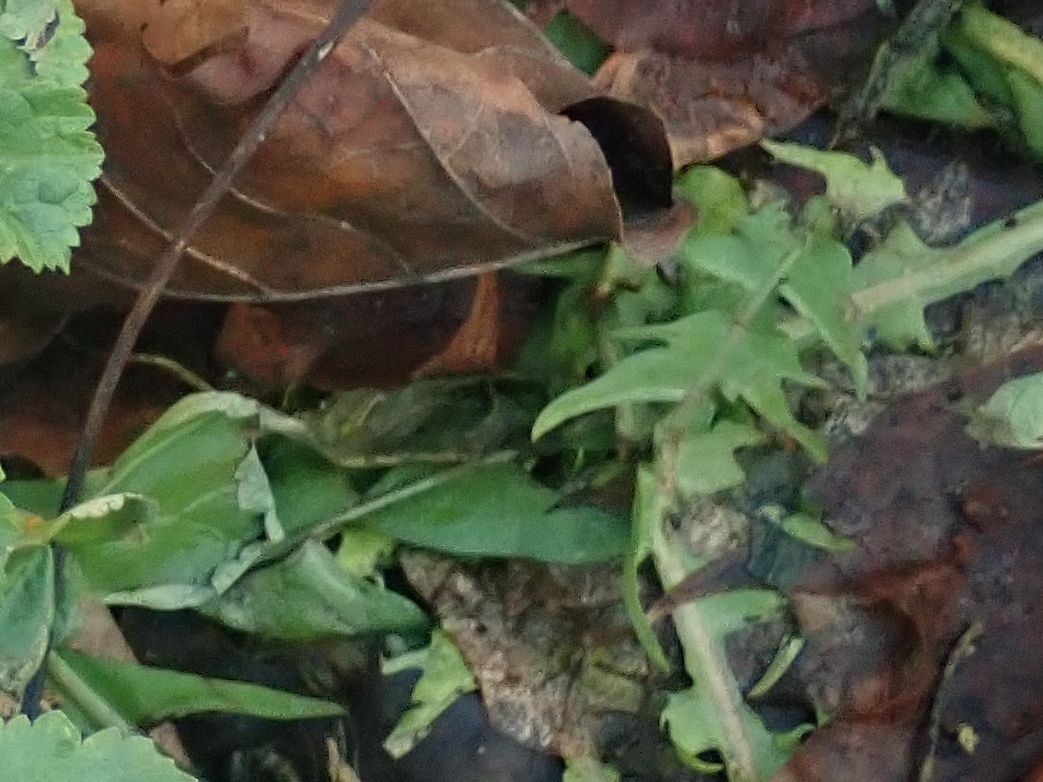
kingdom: Plantae
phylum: Tracheophyta
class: Magnoliopsida
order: Asterales
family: Asteraceae
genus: Taraxacum
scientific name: Taraxacum
